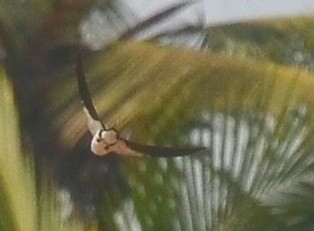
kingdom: Animalia
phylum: Chordata
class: Aves
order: Passeriformes
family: Hirundinidae
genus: Hirundo
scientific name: Hirundo smithii
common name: Wire-tailed swallow
